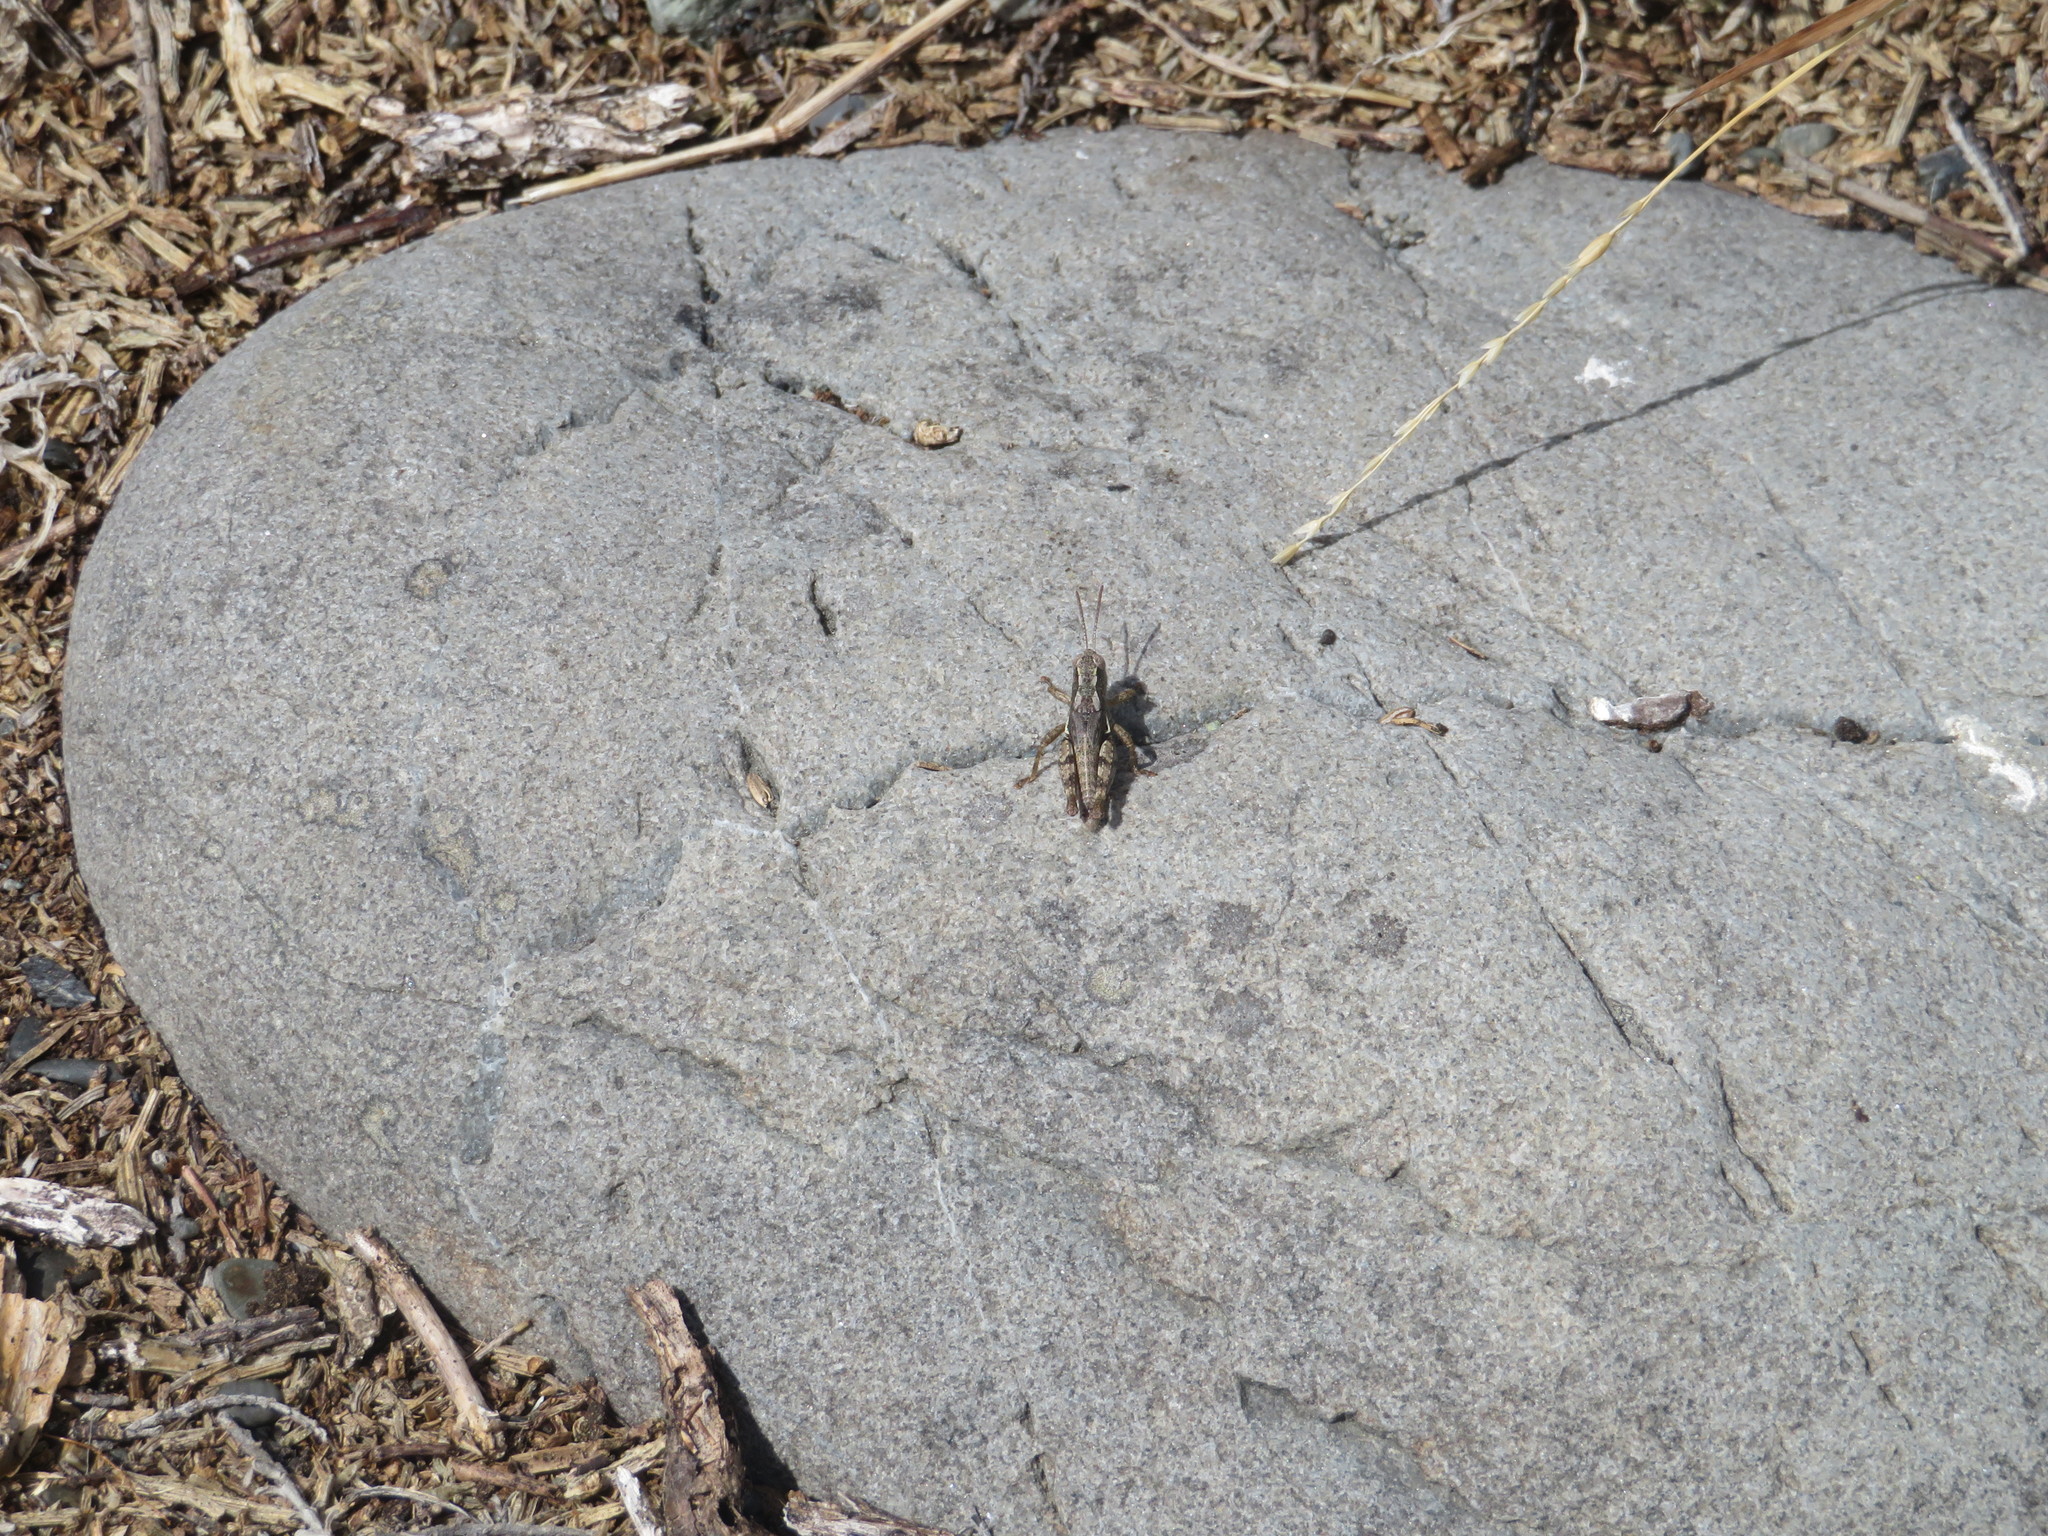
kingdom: Animalia
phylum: Arthropoda
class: Insecta
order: Orthoptera
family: Acrididae
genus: Phaulacridium
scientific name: Phaulacridium marginale
